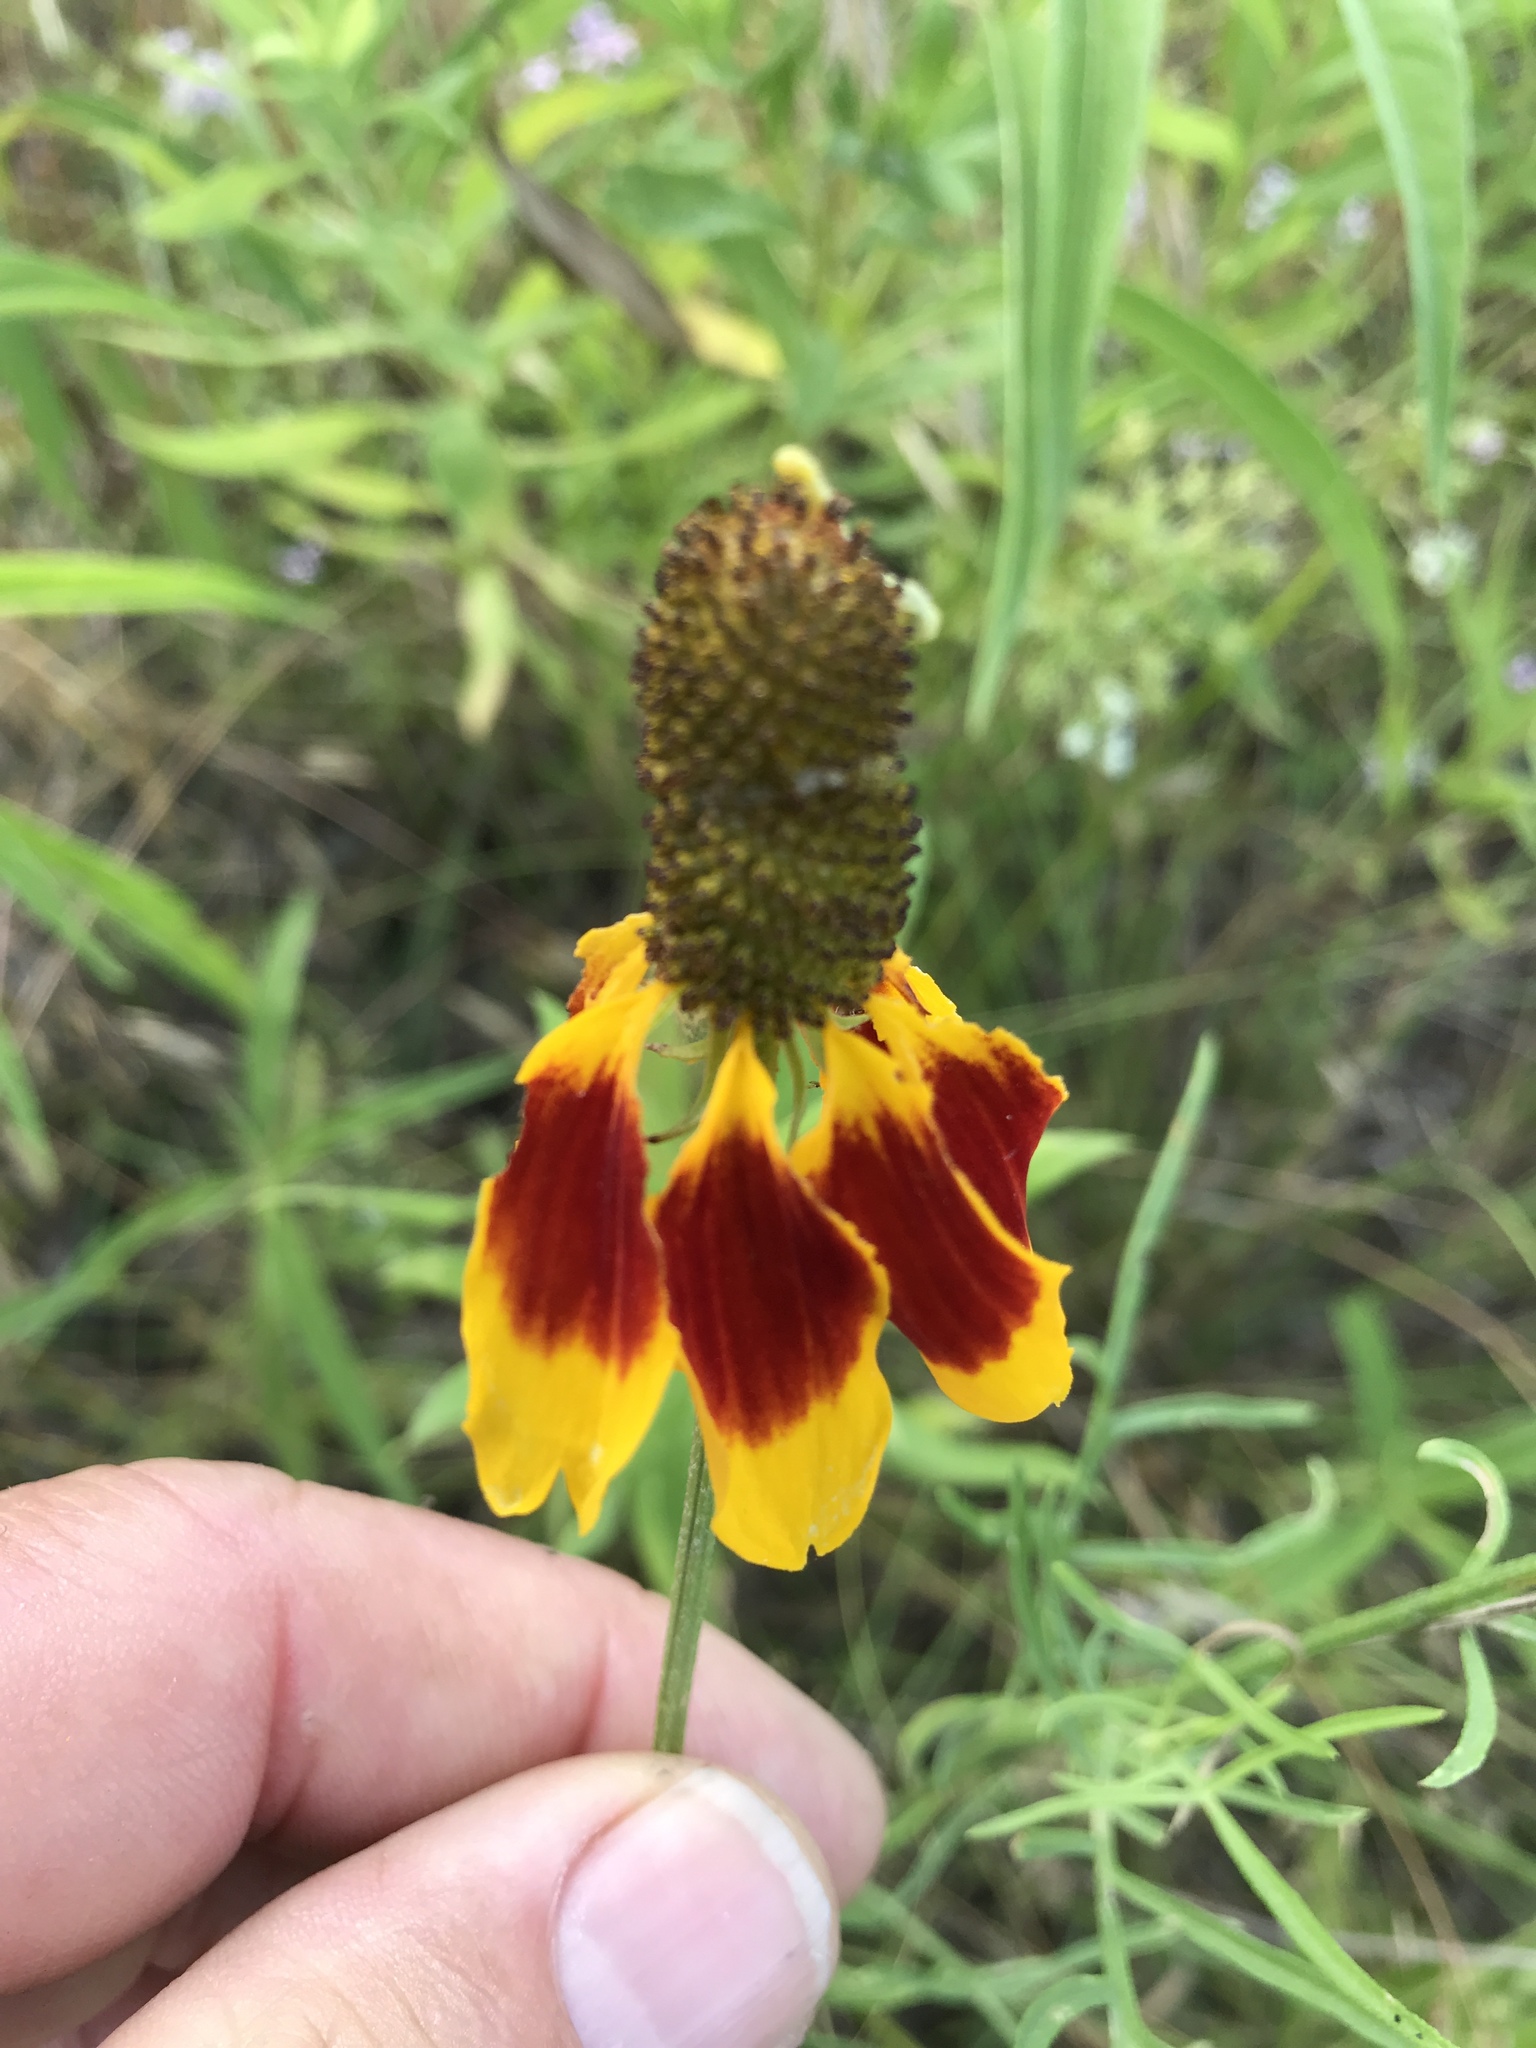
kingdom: Plantae
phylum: Tracheophyta
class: Magnoliopsida
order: Asterales
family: Asteraceae
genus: Ratibida
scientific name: Ratibida columnifera
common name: Prairie coneflower
